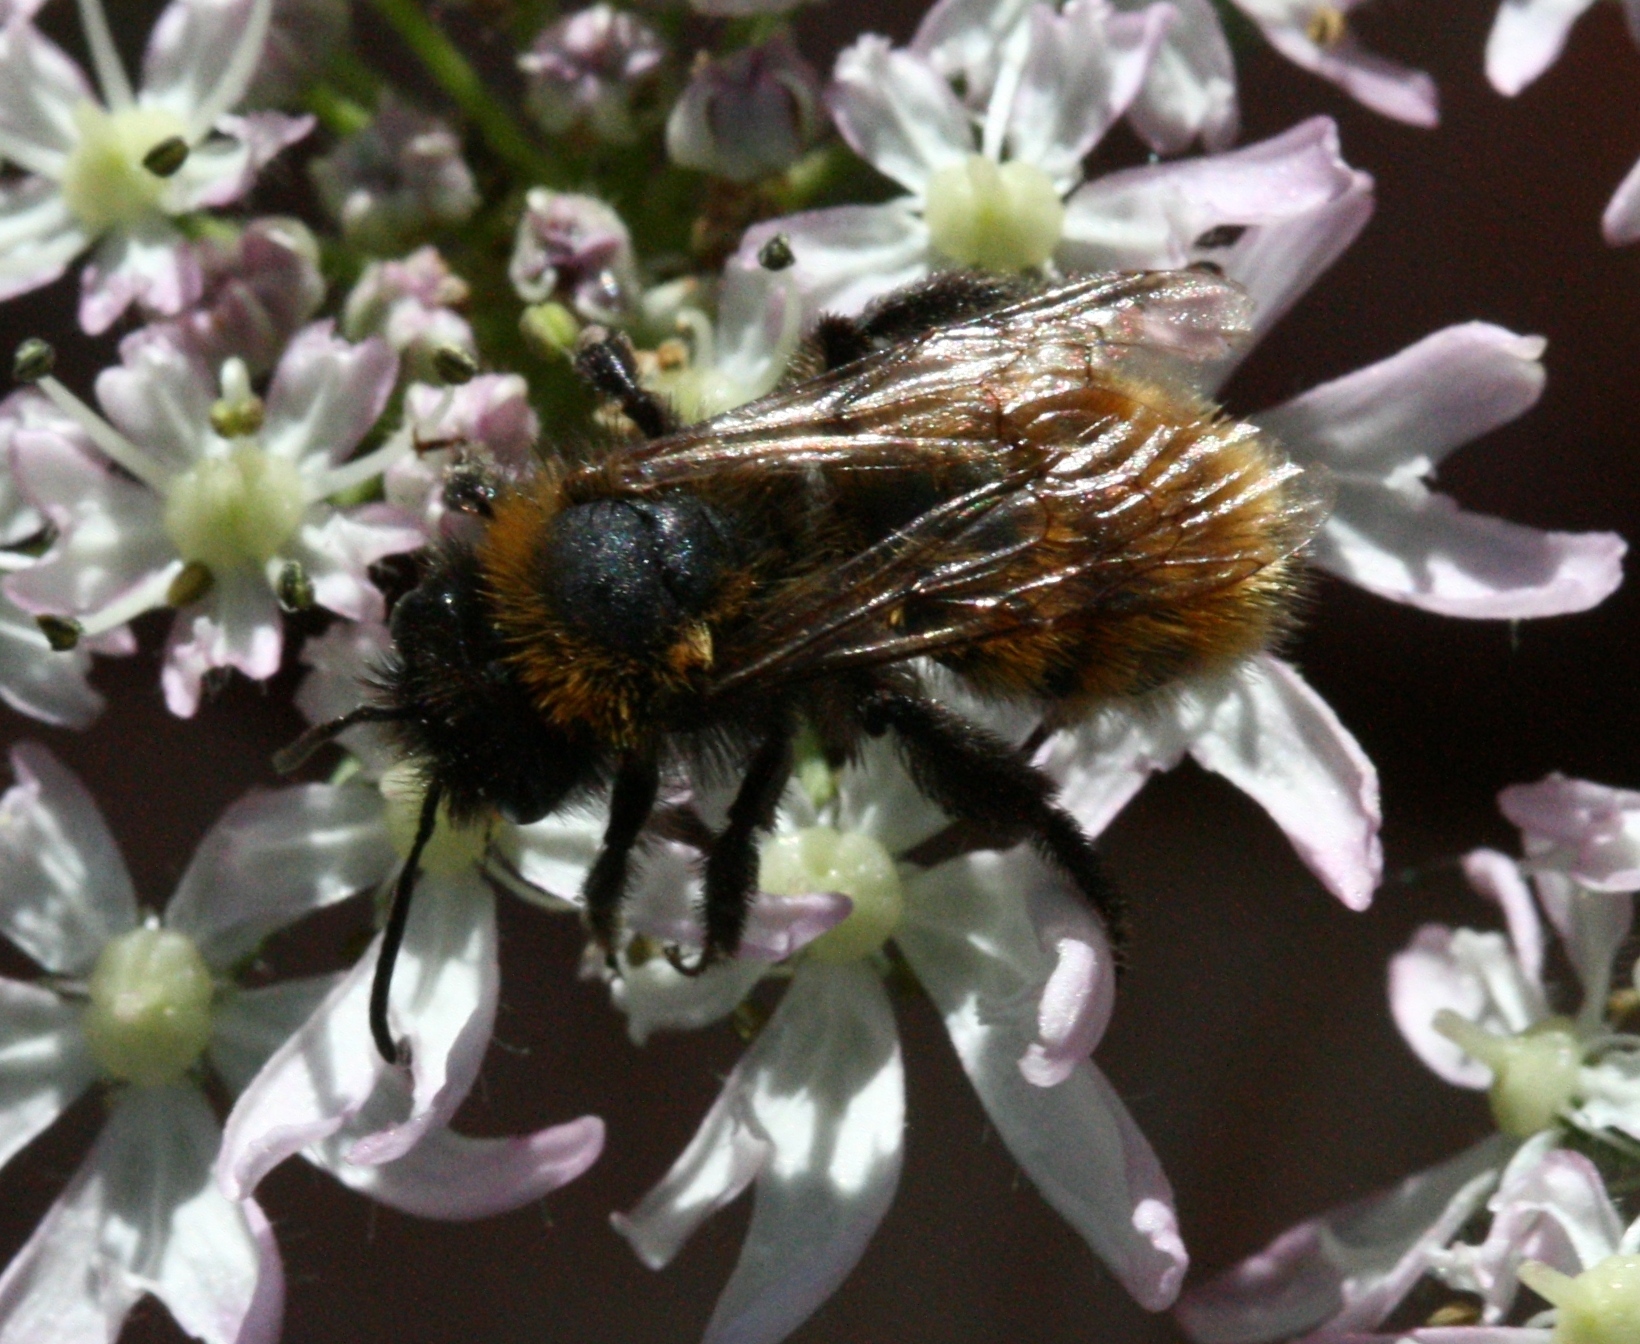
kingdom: Animalia
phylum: Arthropoda
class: Insecta
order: Hymenoptera
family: Andrenidae
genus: Andrena
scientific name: Andrena fulva
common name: Tawny mining bee
